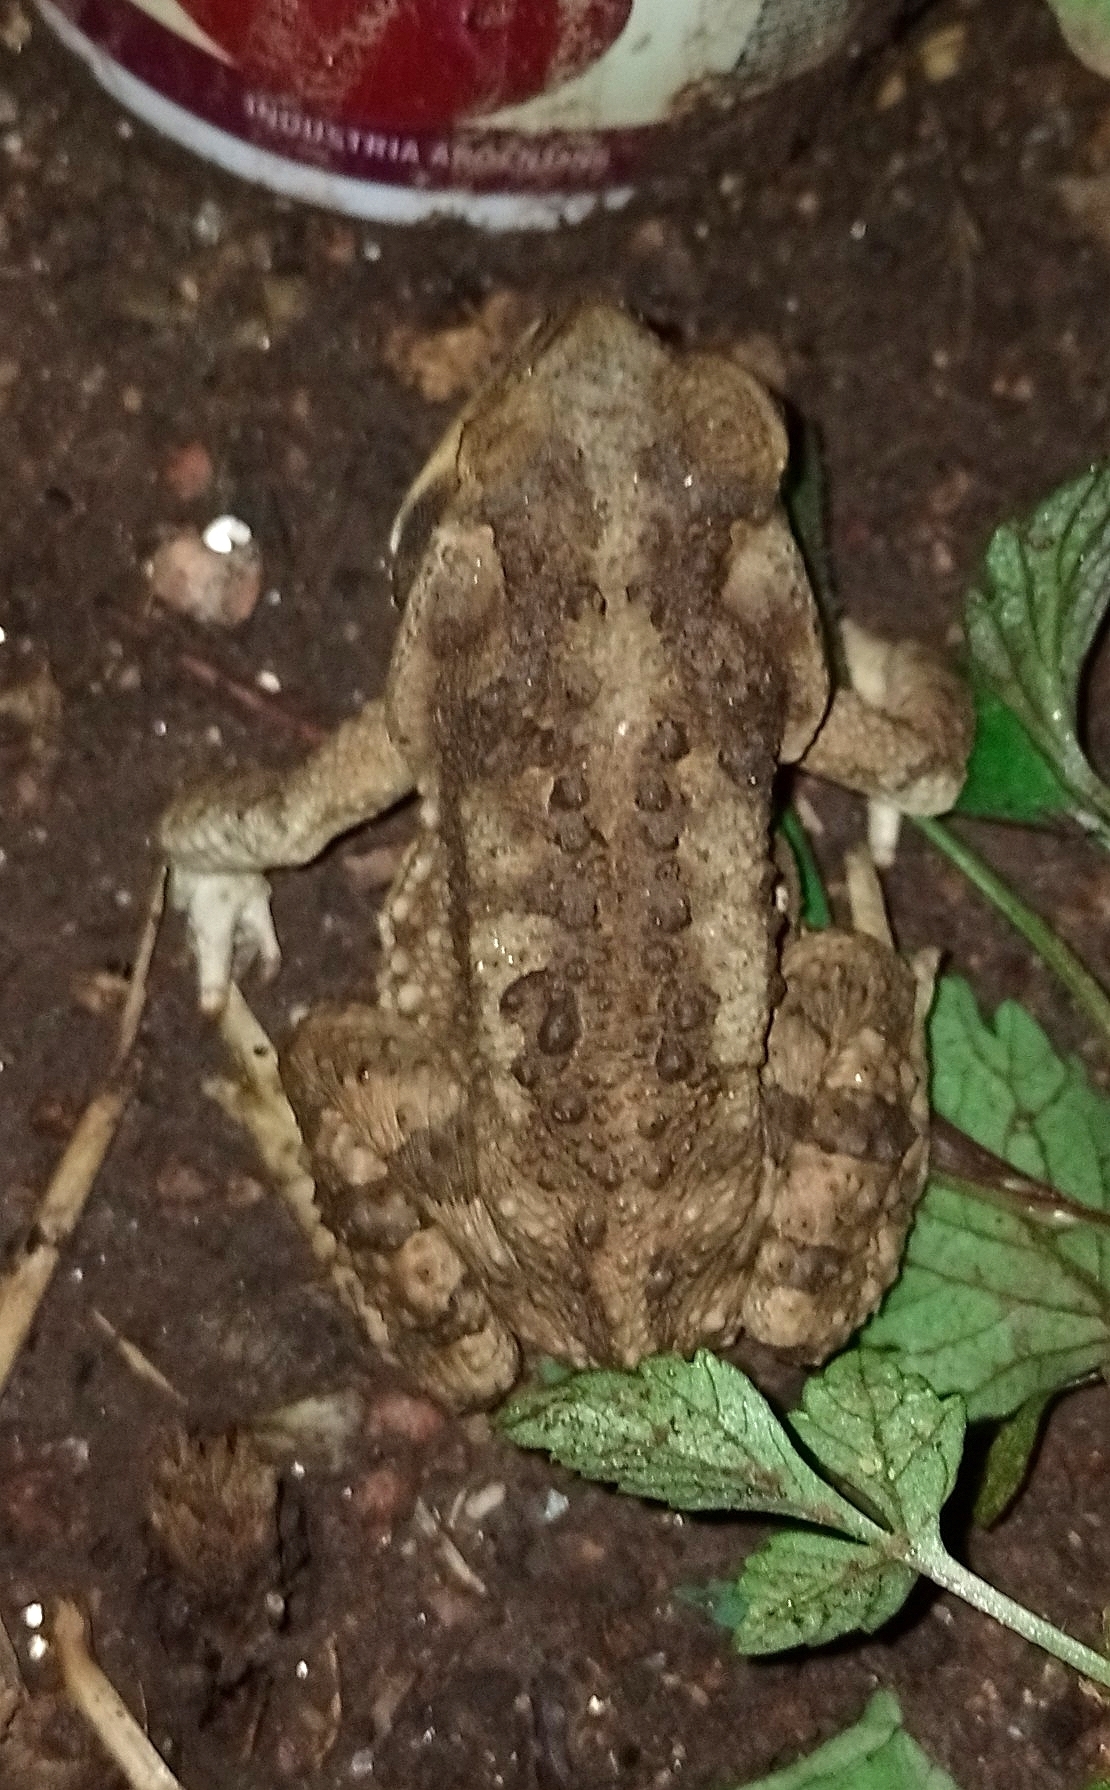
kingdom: Animalia
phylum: Chordata
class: Amphibia
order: Anura
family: Bufonidae
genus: Rhinella
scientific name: Rhinella arenarum
